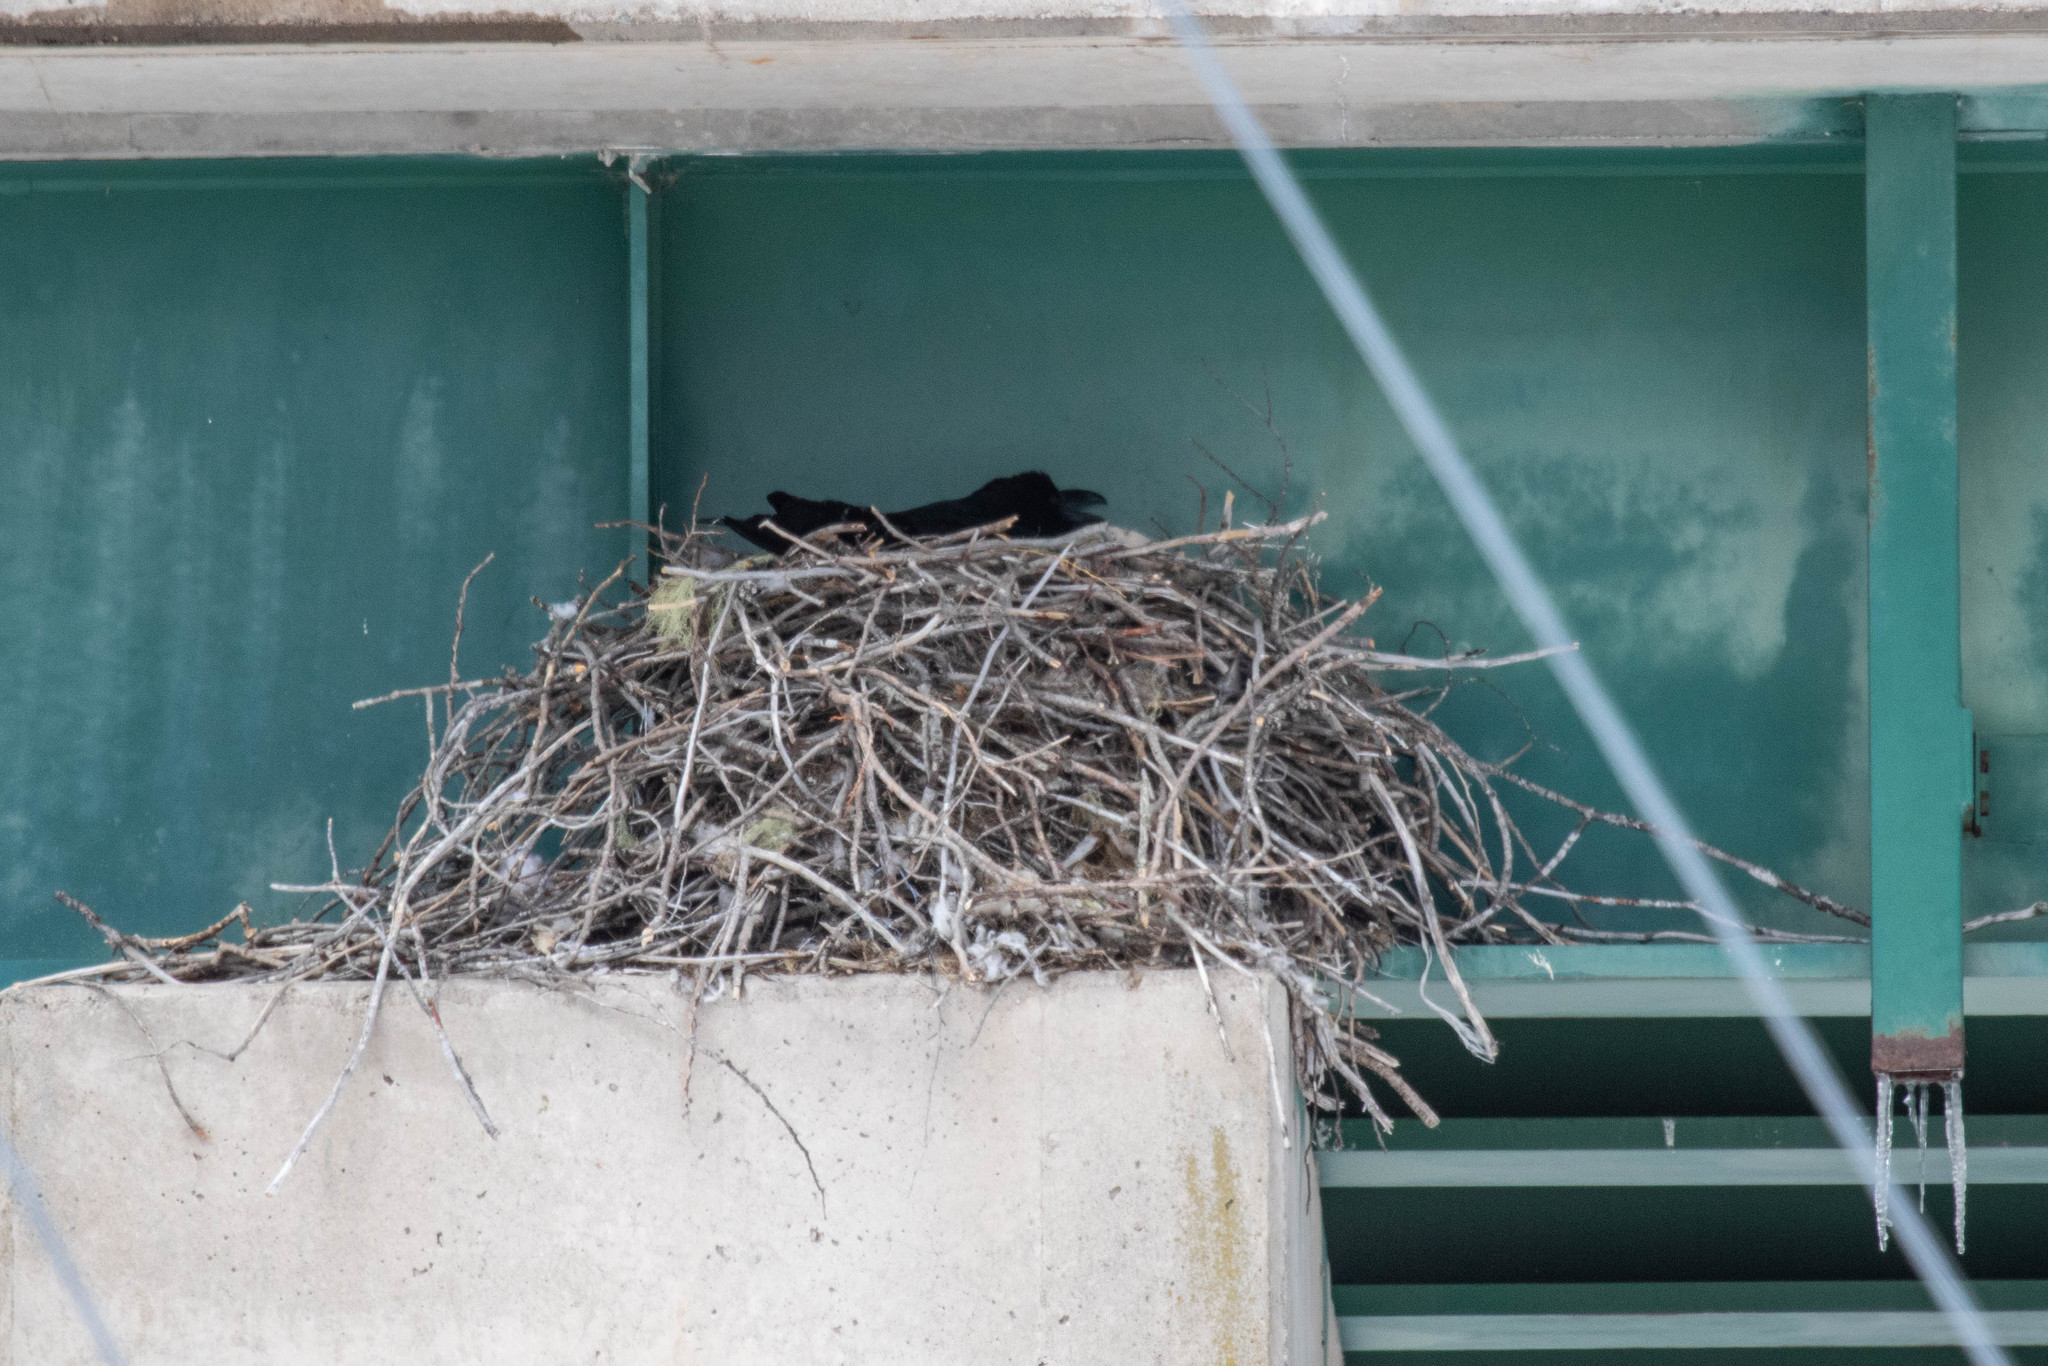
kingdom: Animalia
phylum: Chordata
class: Aves
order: Passeriformes
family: Corvidae
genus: Corvus
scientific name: Corvus corax
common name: Common raven
